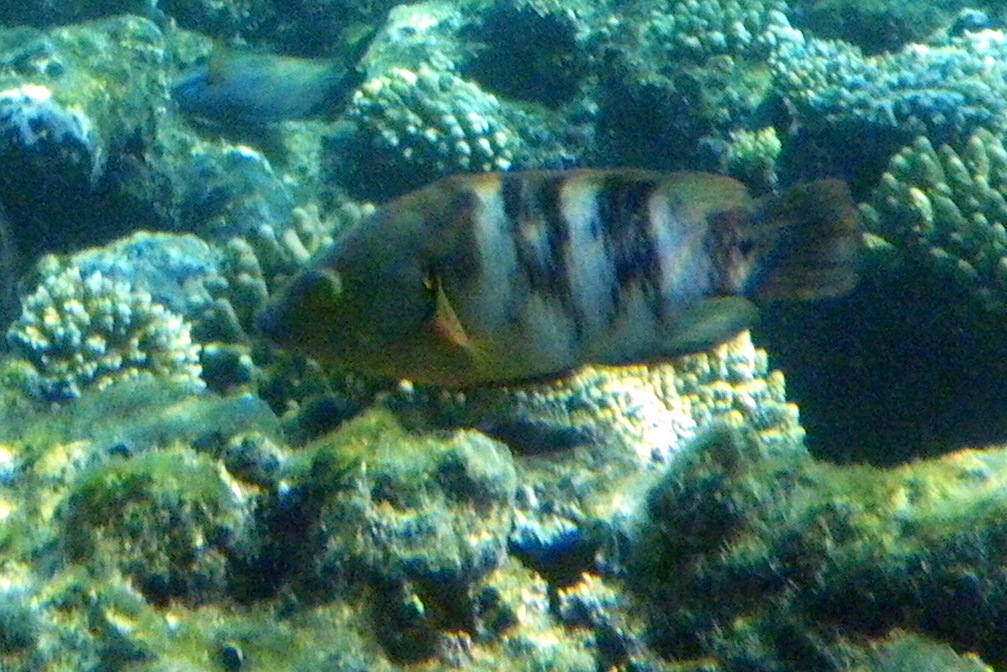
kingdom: Animalia
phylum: Chordata
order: Perciformes
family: Labridae
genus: Cheilinus
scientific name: Cheilinus lunulatus
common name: Broomtail wrasse
